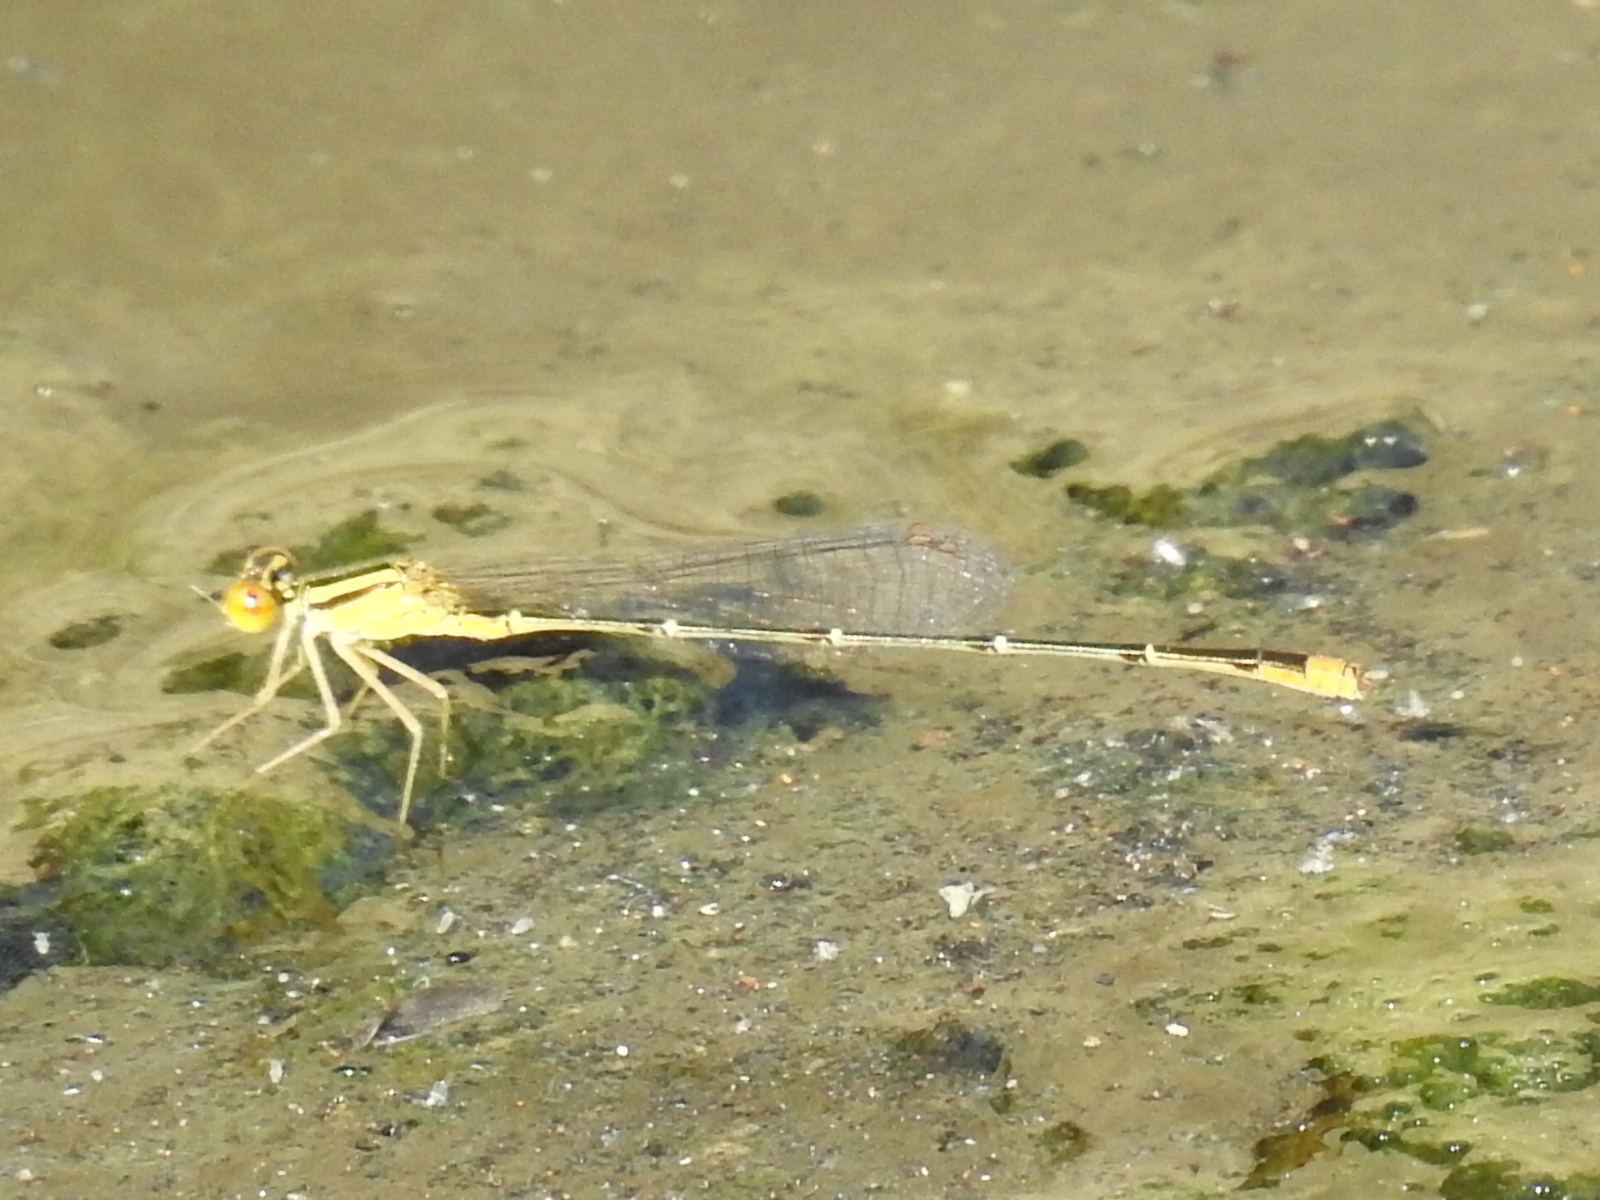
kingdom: Animalia
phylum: Arthropoda
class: Insecta
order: Odonata
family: Coenagrionidae
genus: Enallagma
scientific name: Enallagma signatum
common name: Orange bluet
